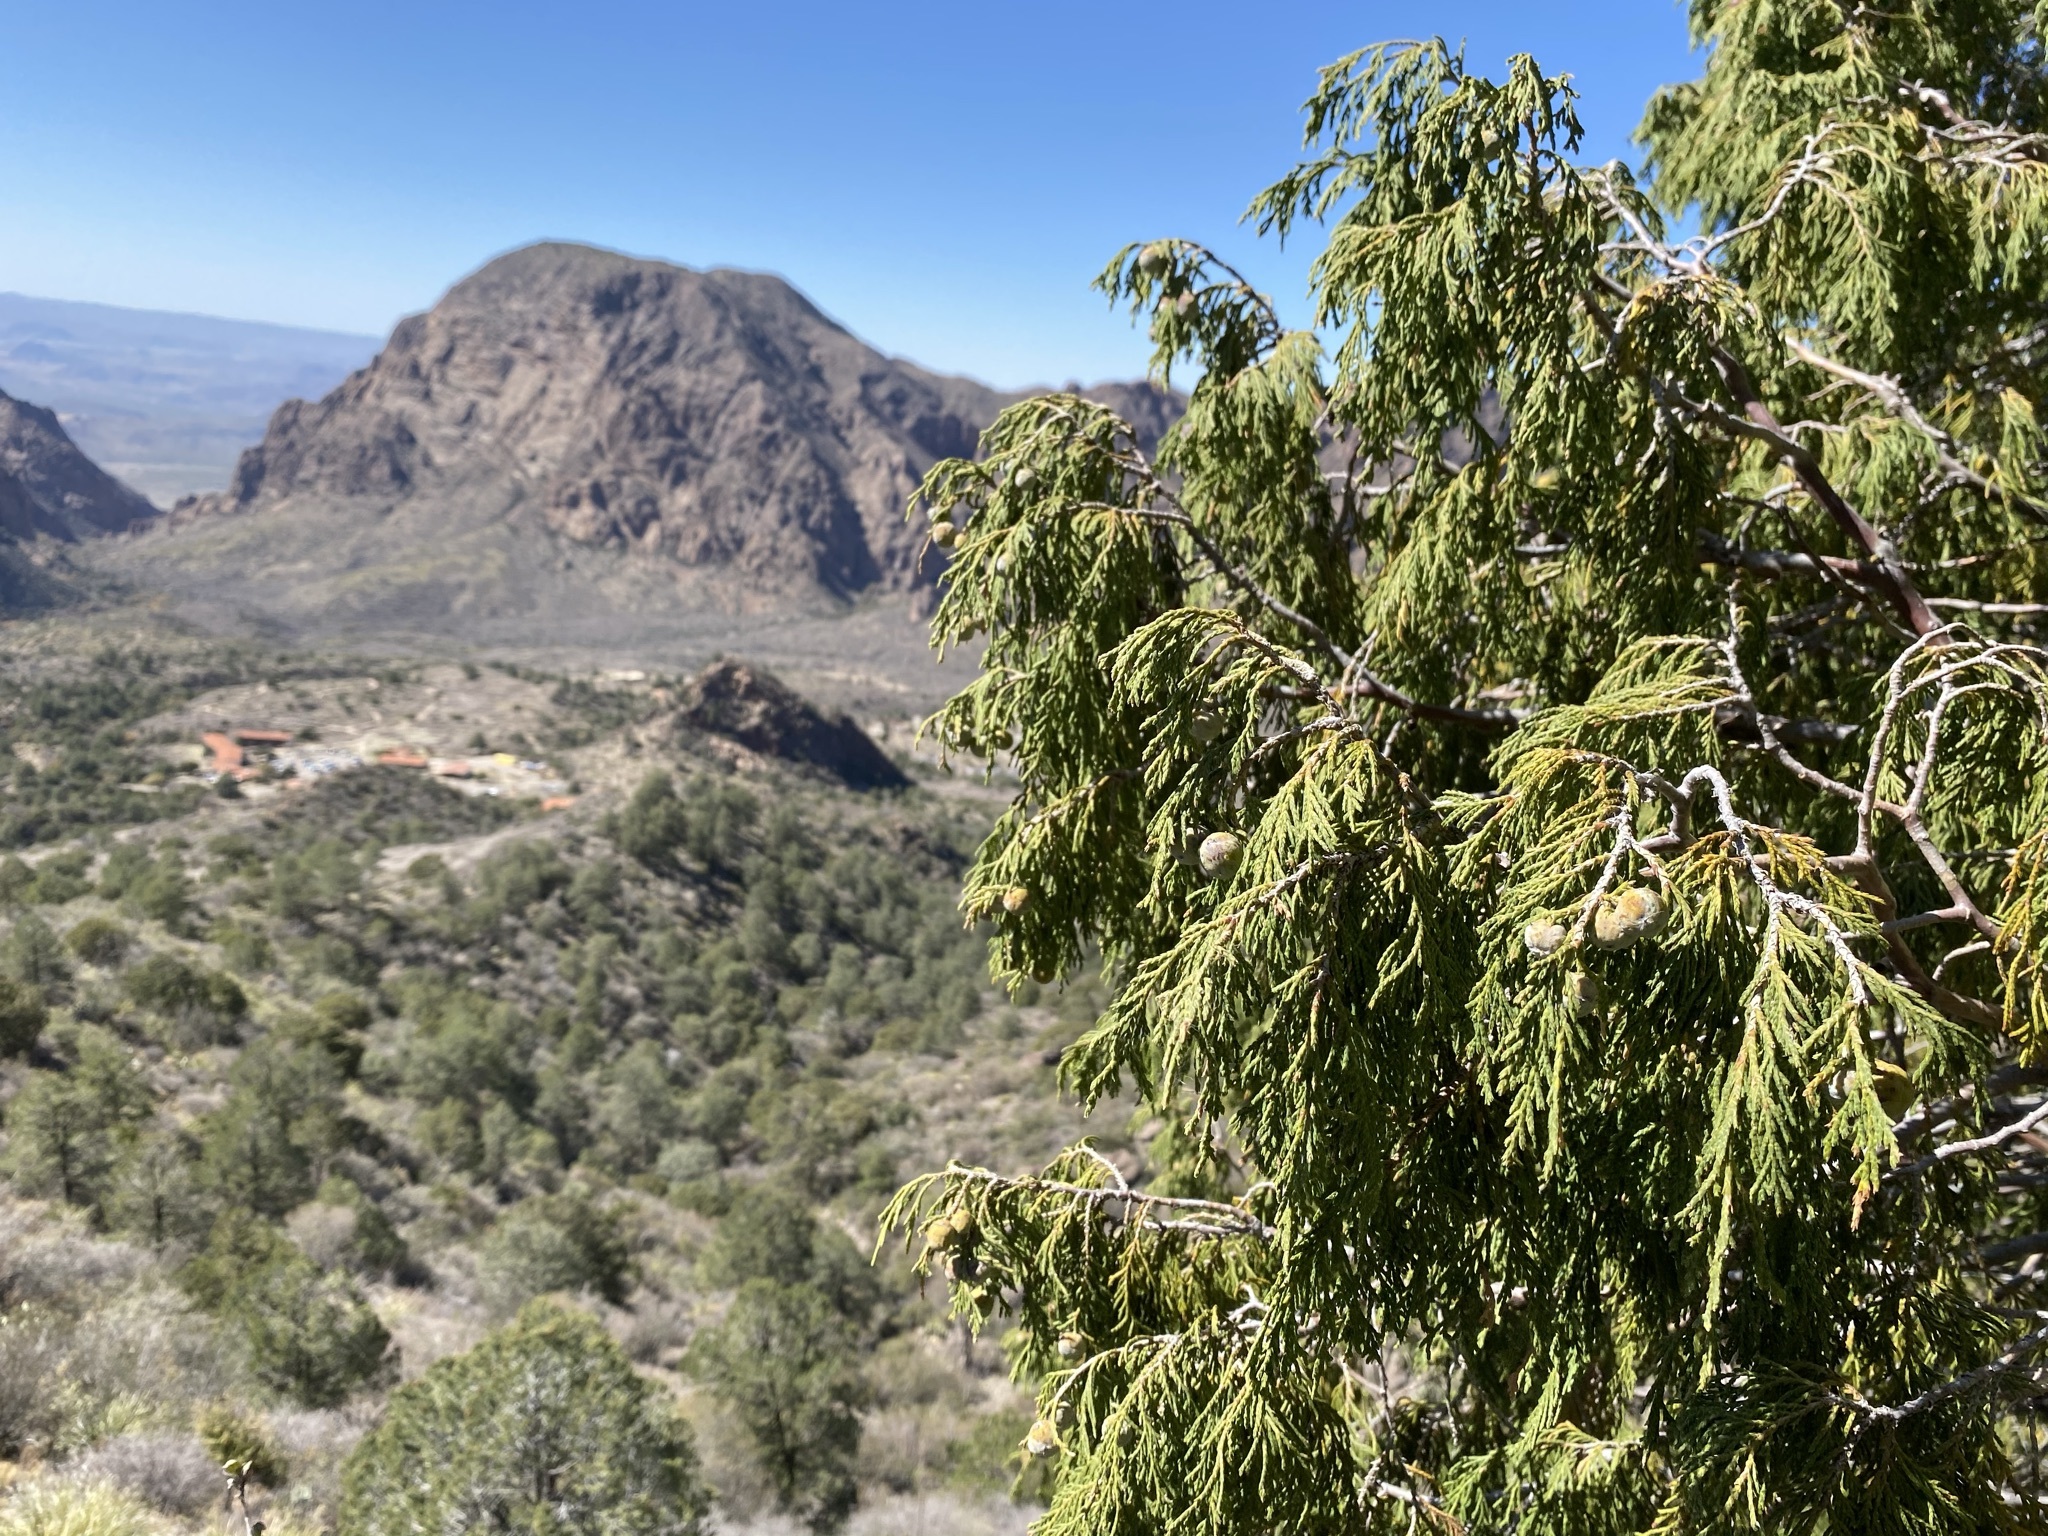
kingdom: Plantae
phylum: Tracheophyta
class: Pinopsida
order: Pinales
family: Cupressaceae
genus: Juniperus
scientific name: Juniperus flaccida
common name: Drooping juniper
